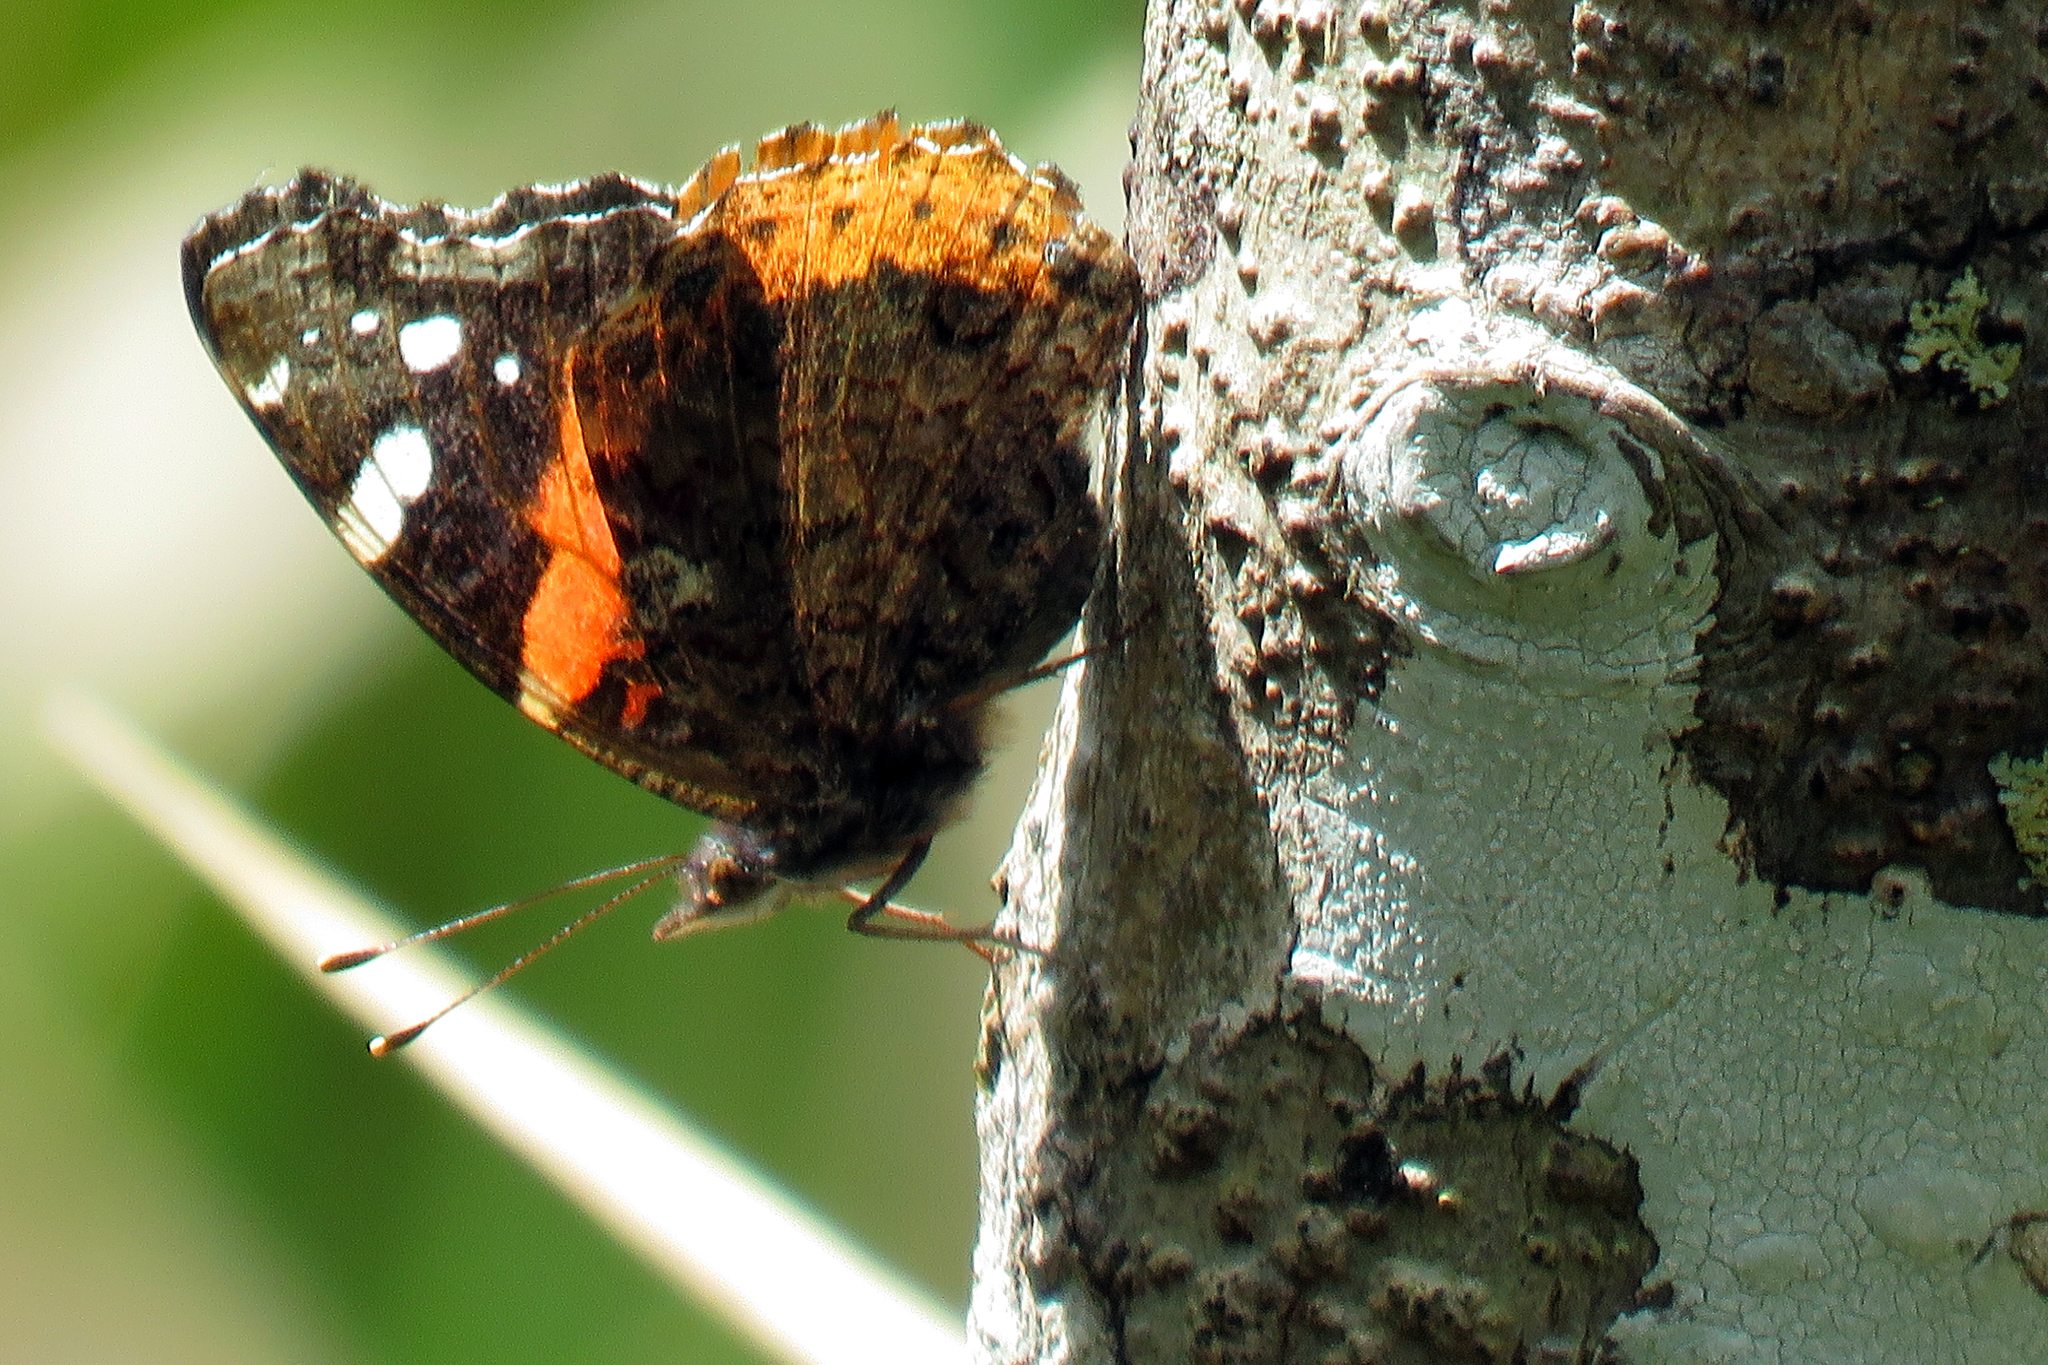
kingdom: Animalia
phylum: Arthropoda
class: Insecta
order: Lepidoptera
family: Nymphalidae
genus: Vanessa
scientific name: Vanessa atalanta
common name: Red admiral
